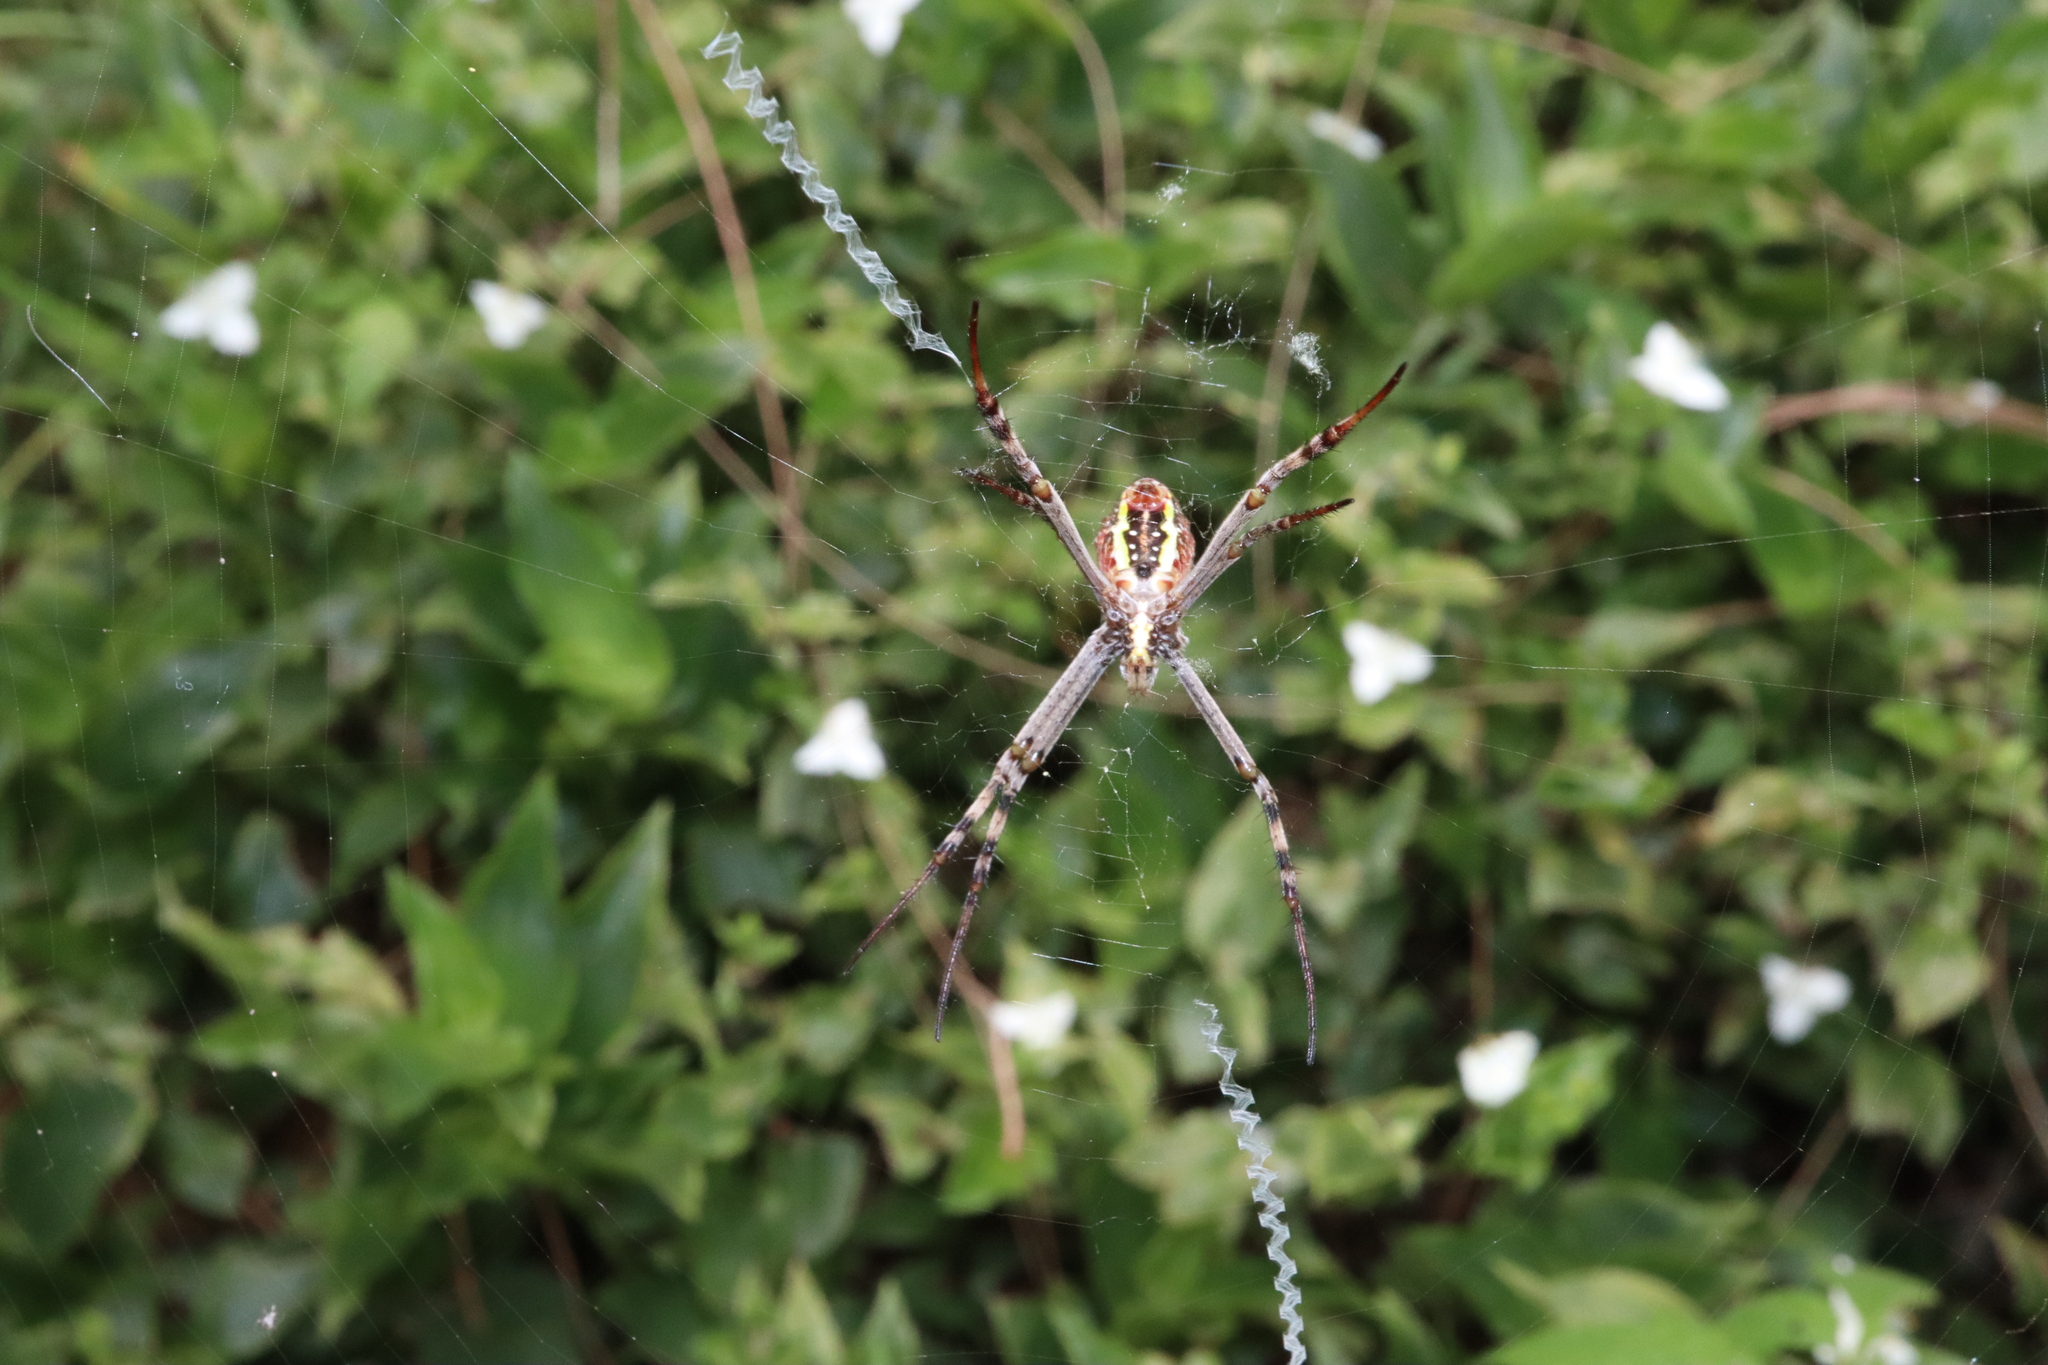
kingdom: Animalia
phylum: Arthropoda
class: Arachnida
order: Araneae
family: Araneidae
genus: Argiope
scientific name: Argiope keyserlingi
